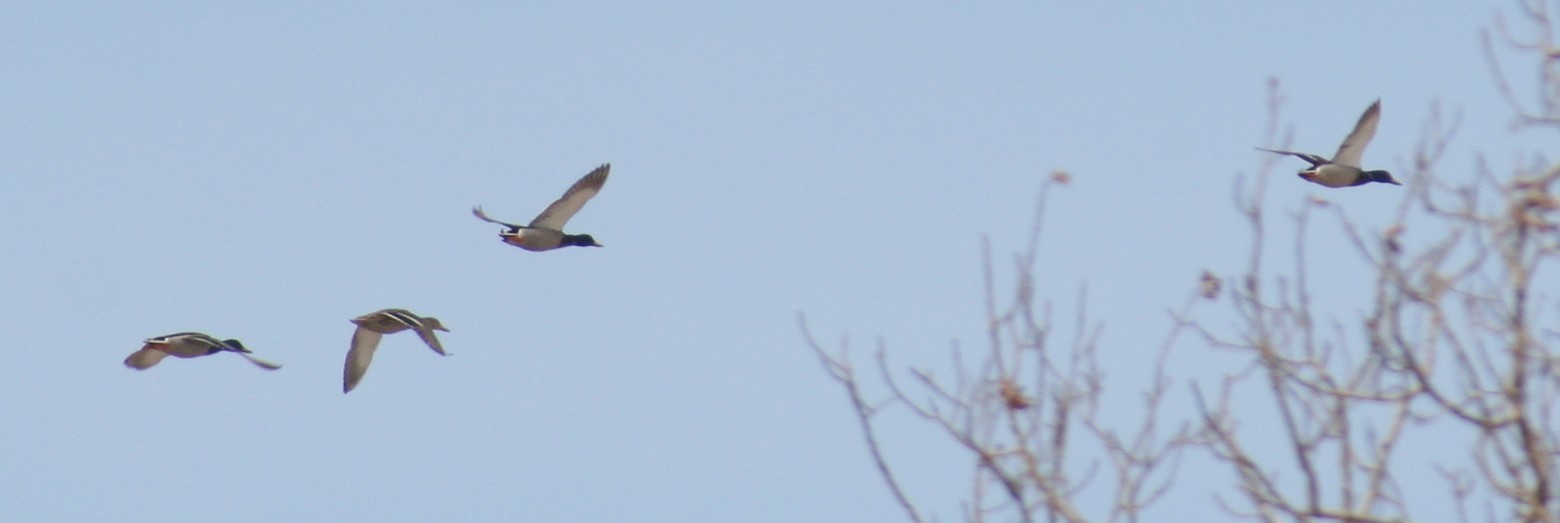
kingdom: Animalia
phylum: Chordata
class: Aves
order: Anseriformes
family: Anatidae
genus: Anas
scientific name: Anas platyrhynchos
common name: Mallard
